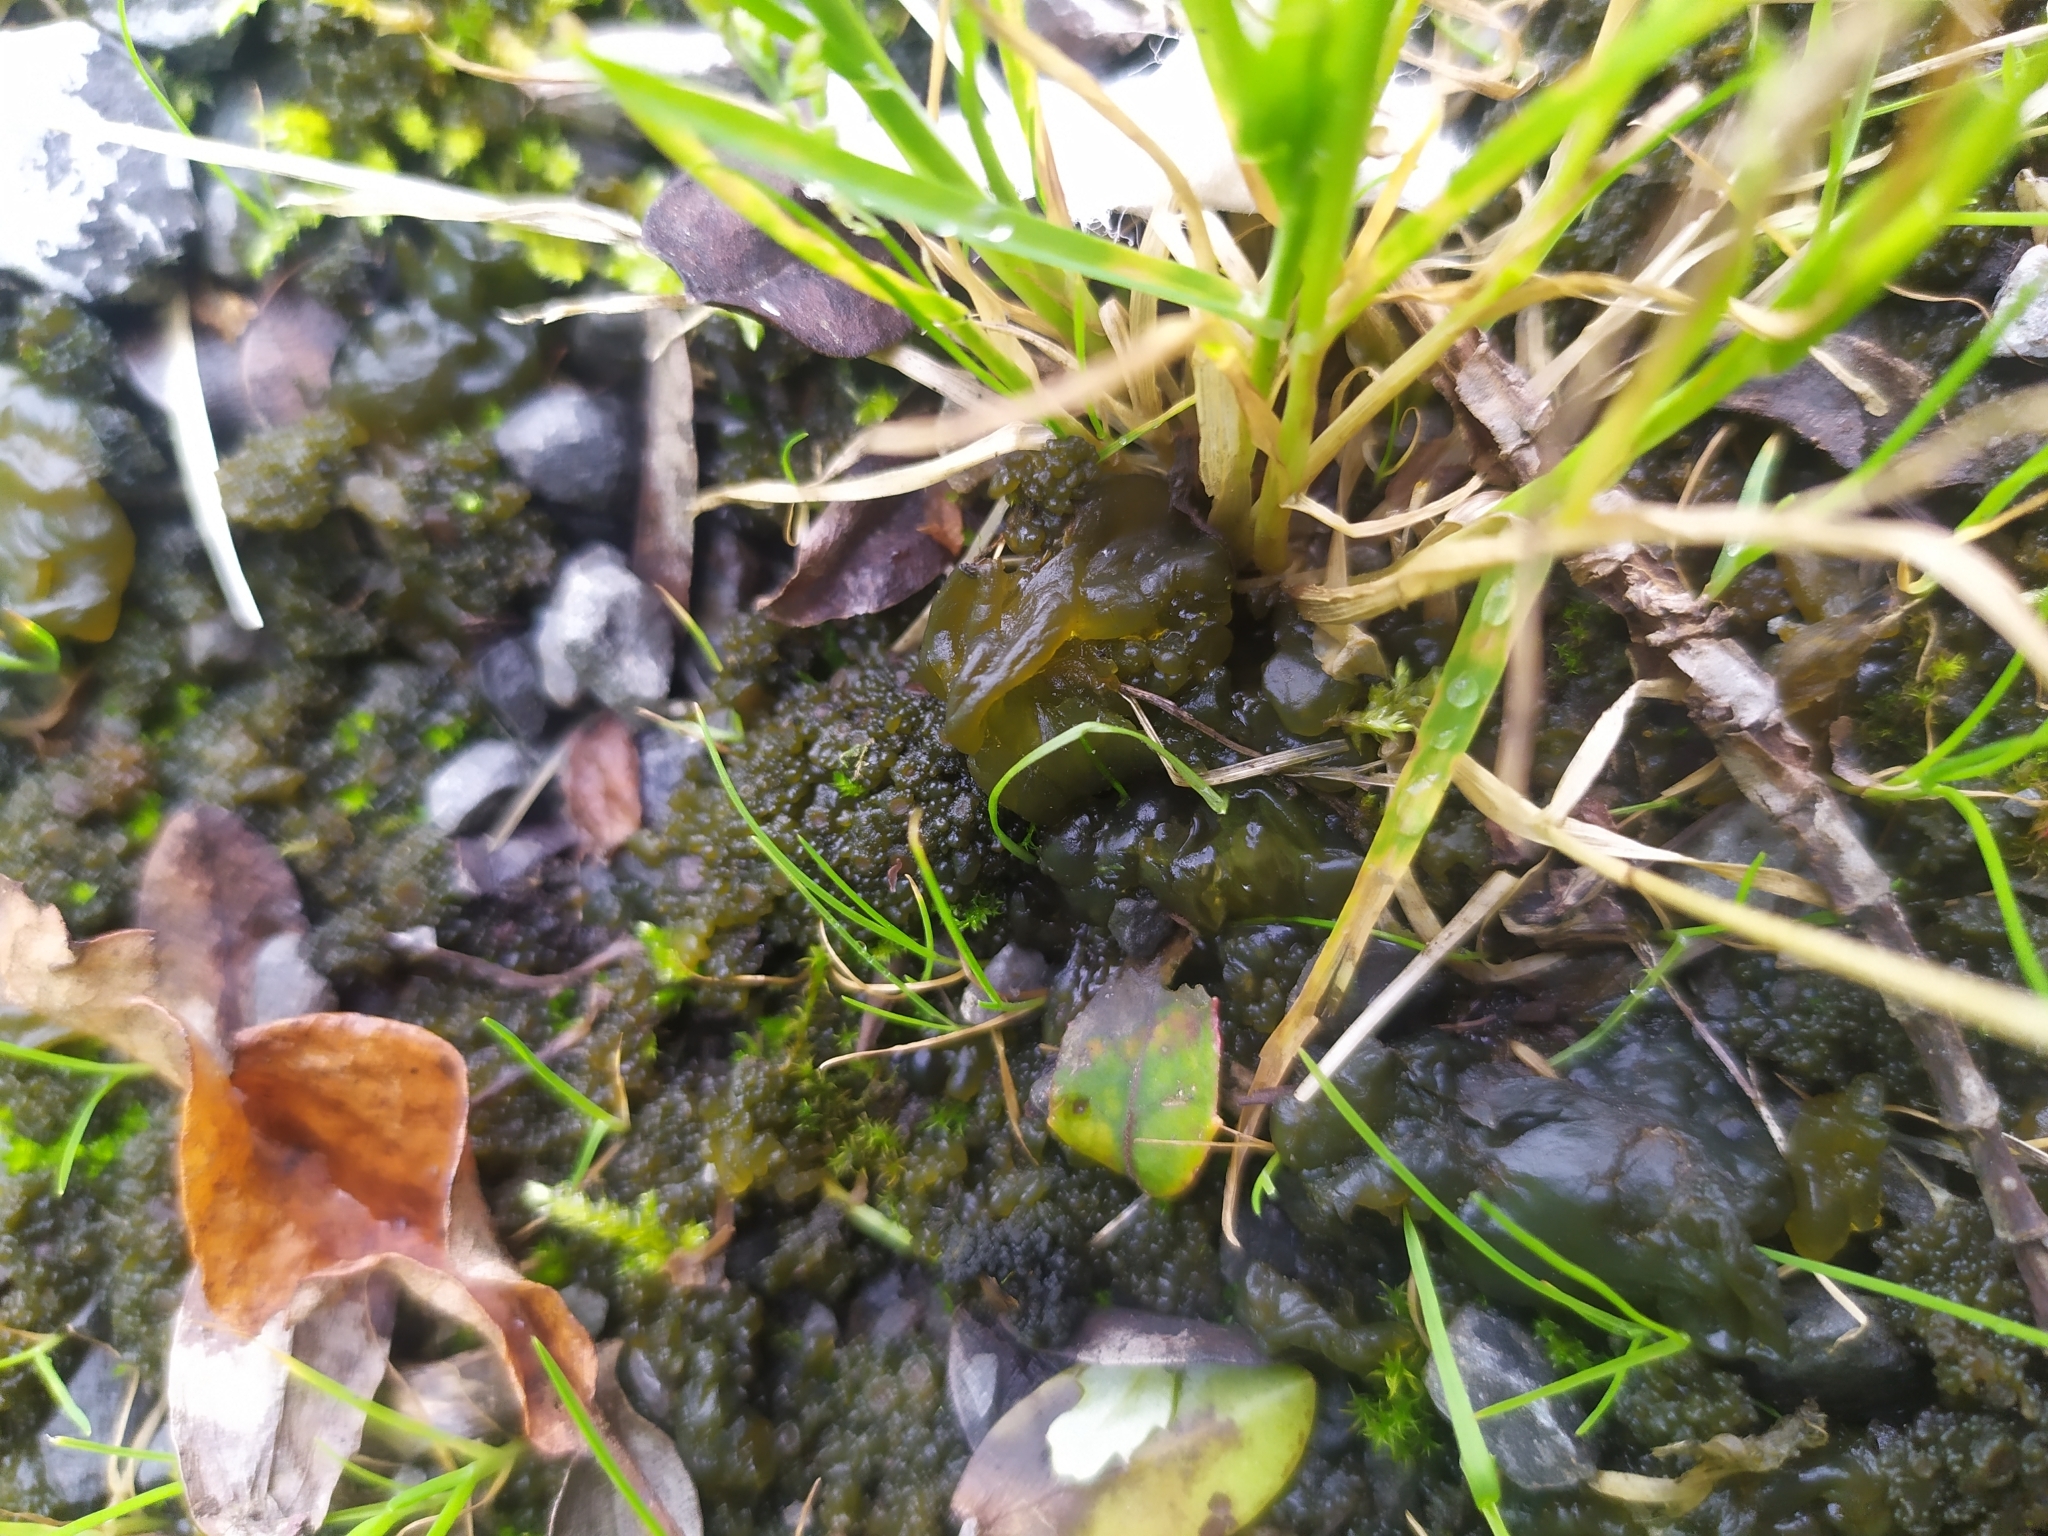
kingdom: Bacteria
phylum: Cyanobacteria
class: Cyanobacteriia
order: Cyanobacteriales
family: Nostocaceae
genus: Nostoc
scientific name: Nostoc commune
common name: Star jelly
